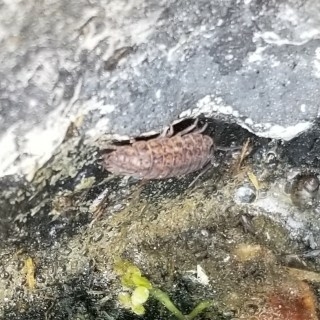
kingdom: Animalia
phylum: Arthropoda
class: Malacostraca
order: Isopoda
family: Trachelipodidae
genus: Trachelipus
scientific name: Trachelipus rathkii
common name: Isopod
